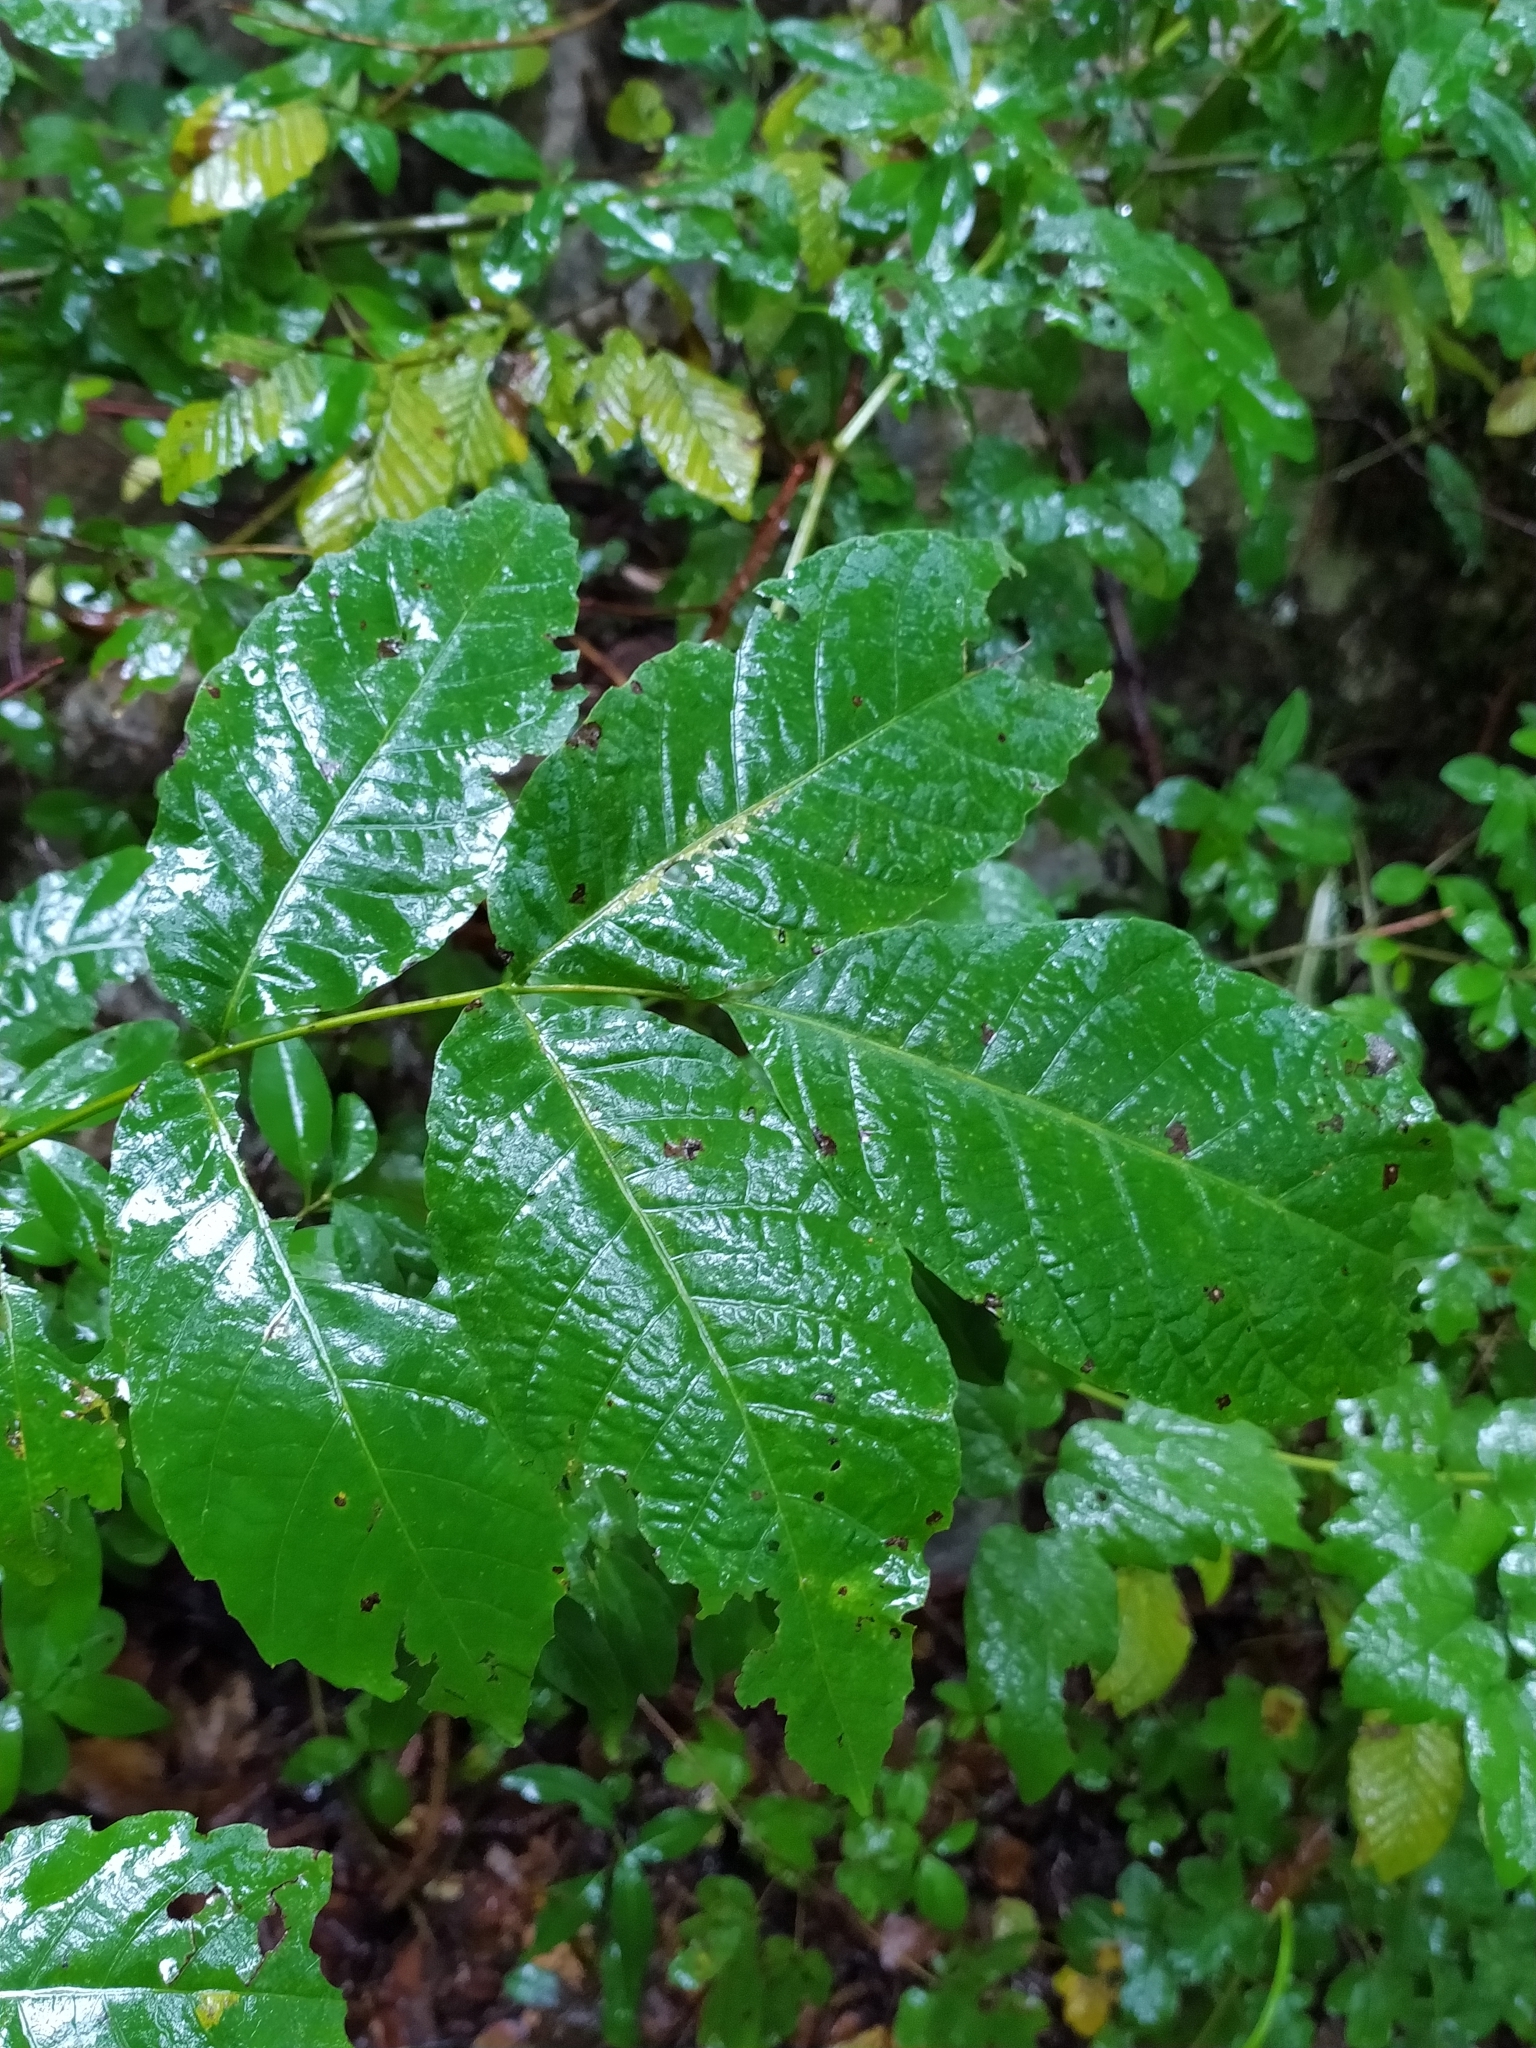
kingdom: Plantae
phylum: Tracheophyta
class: Magnoliopsida
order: Fagales
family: Juglandaceae
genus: Juglans
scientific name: Juglans regia
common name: Walnut
